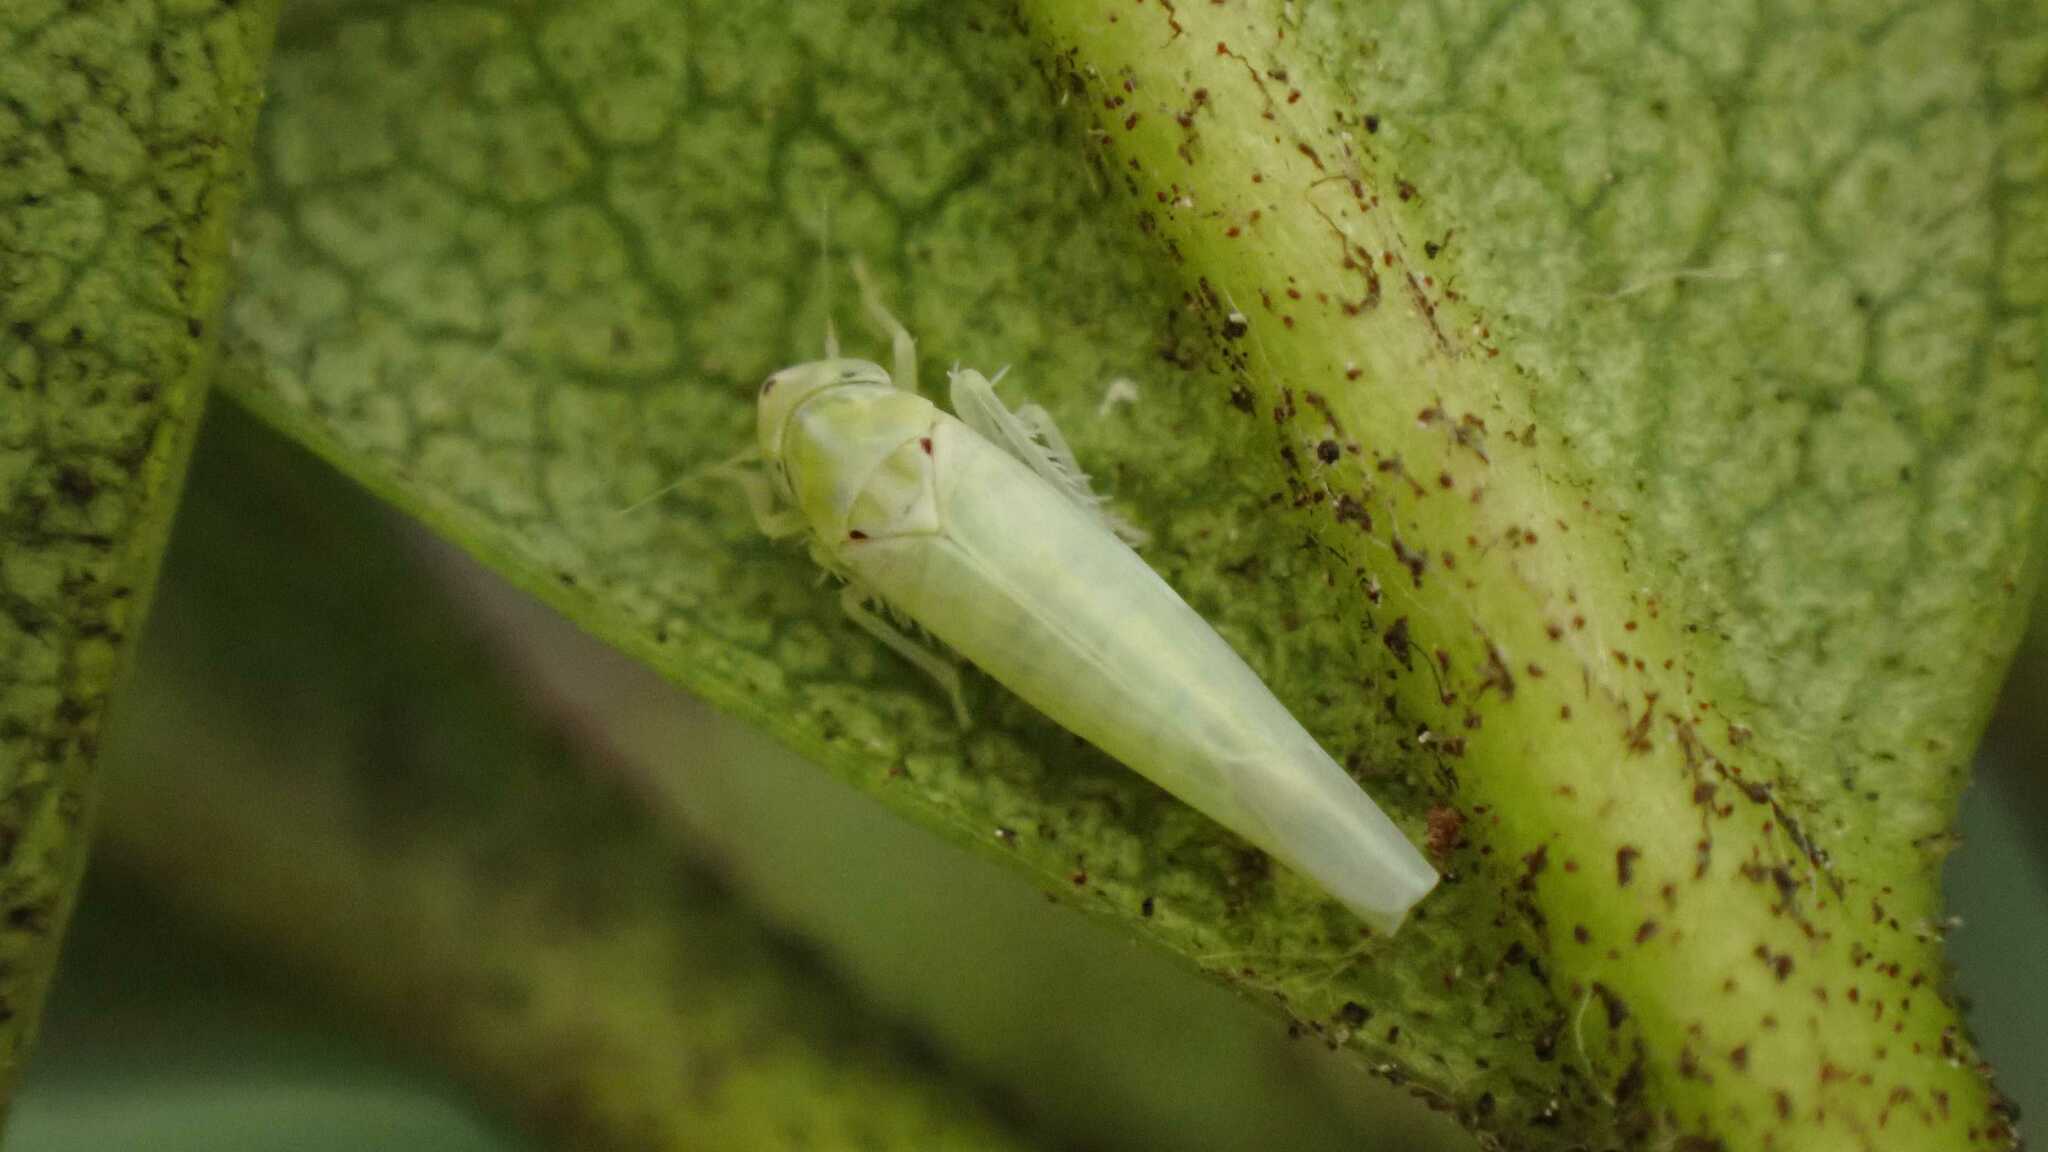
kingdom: Animalia
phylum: Arthropoda
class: Insecta
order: Hemiptera
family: Cicadellidae
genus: Zygina
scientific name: Zygina nivea
